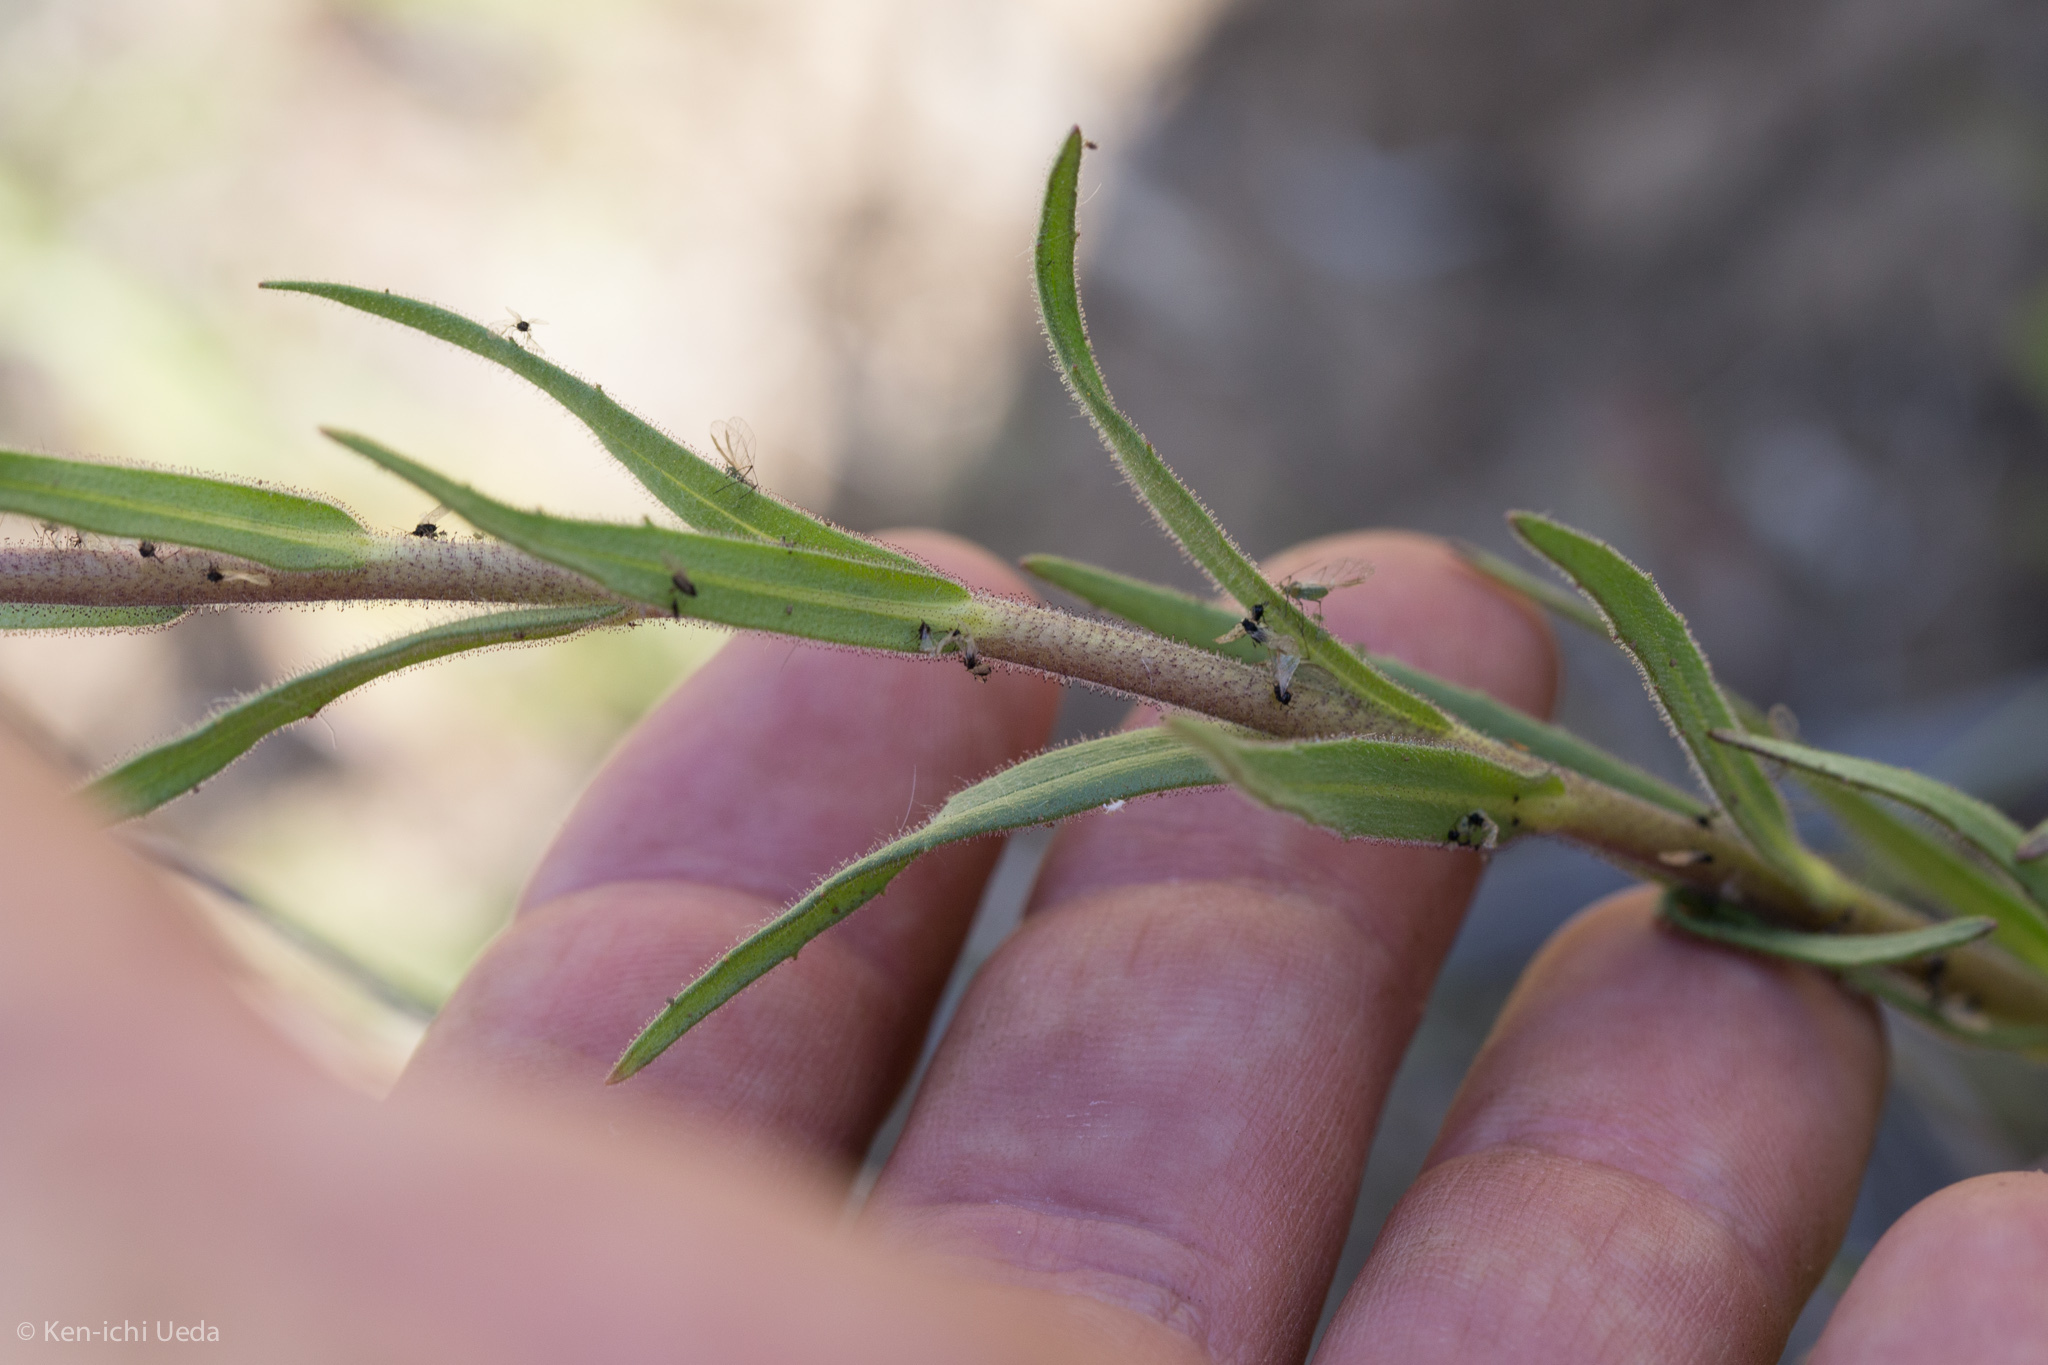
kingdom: Plantae
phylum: Tracheophyta
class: Magnoliopsida
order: Asterales
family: Asteraceae
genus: Madia
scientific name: Madia radiata
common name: Showy madia
